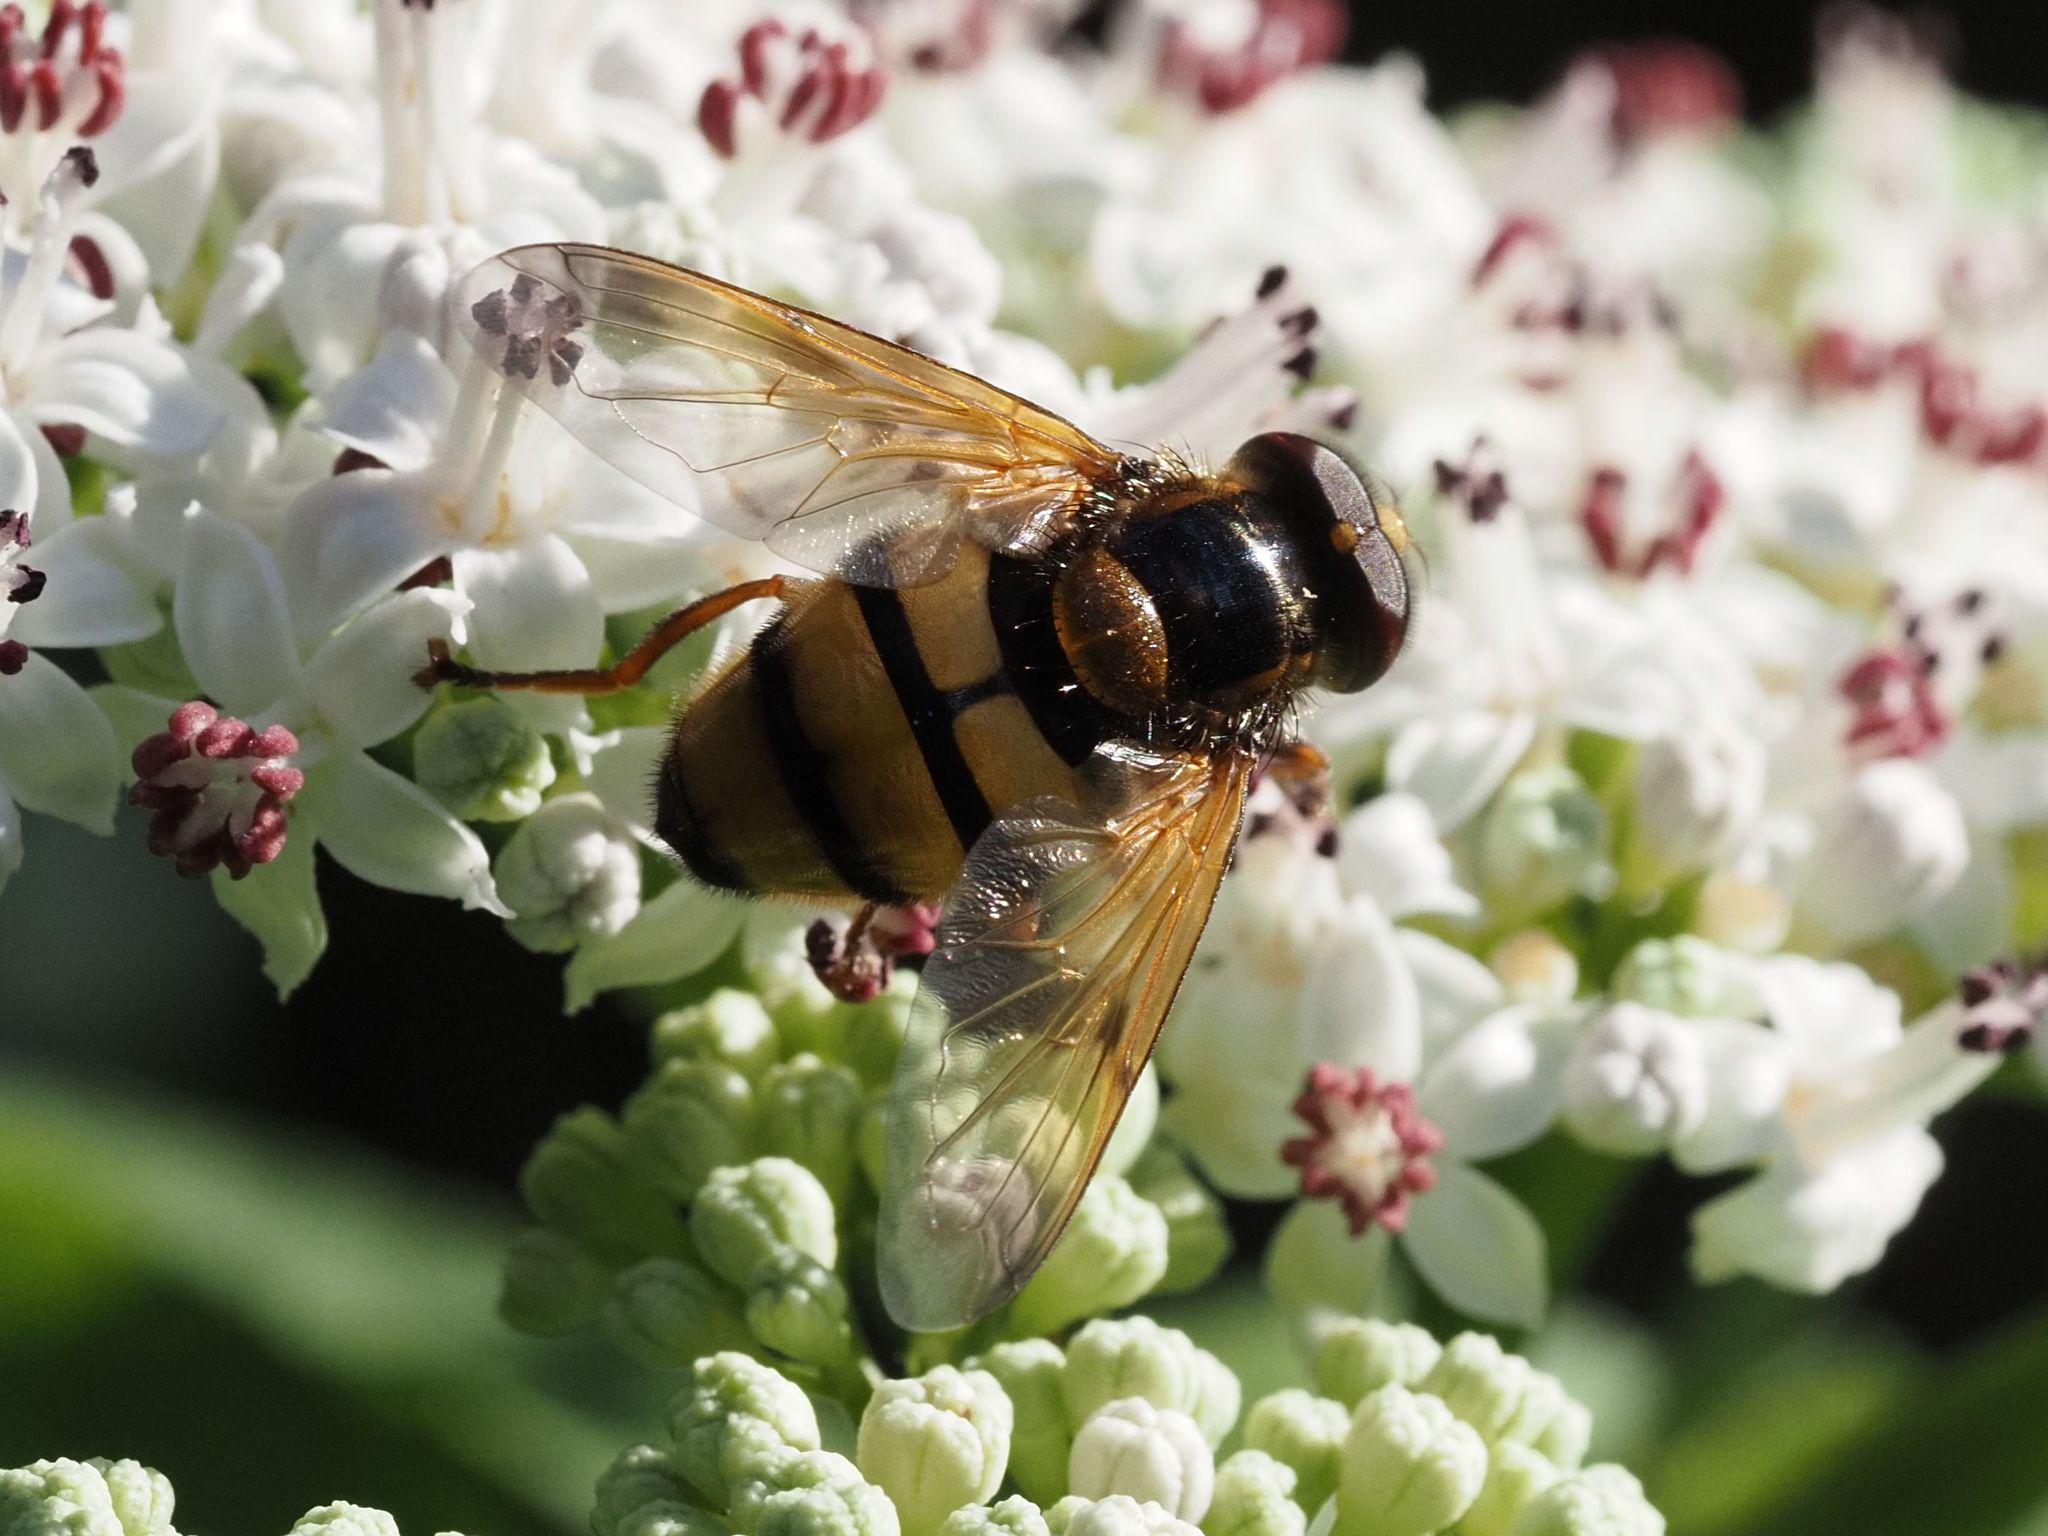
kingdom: Animalia
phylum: Arthropoda
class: Insecta
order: Diptera
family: Syrphidae
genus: Volucella
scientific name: Volucella inanis
